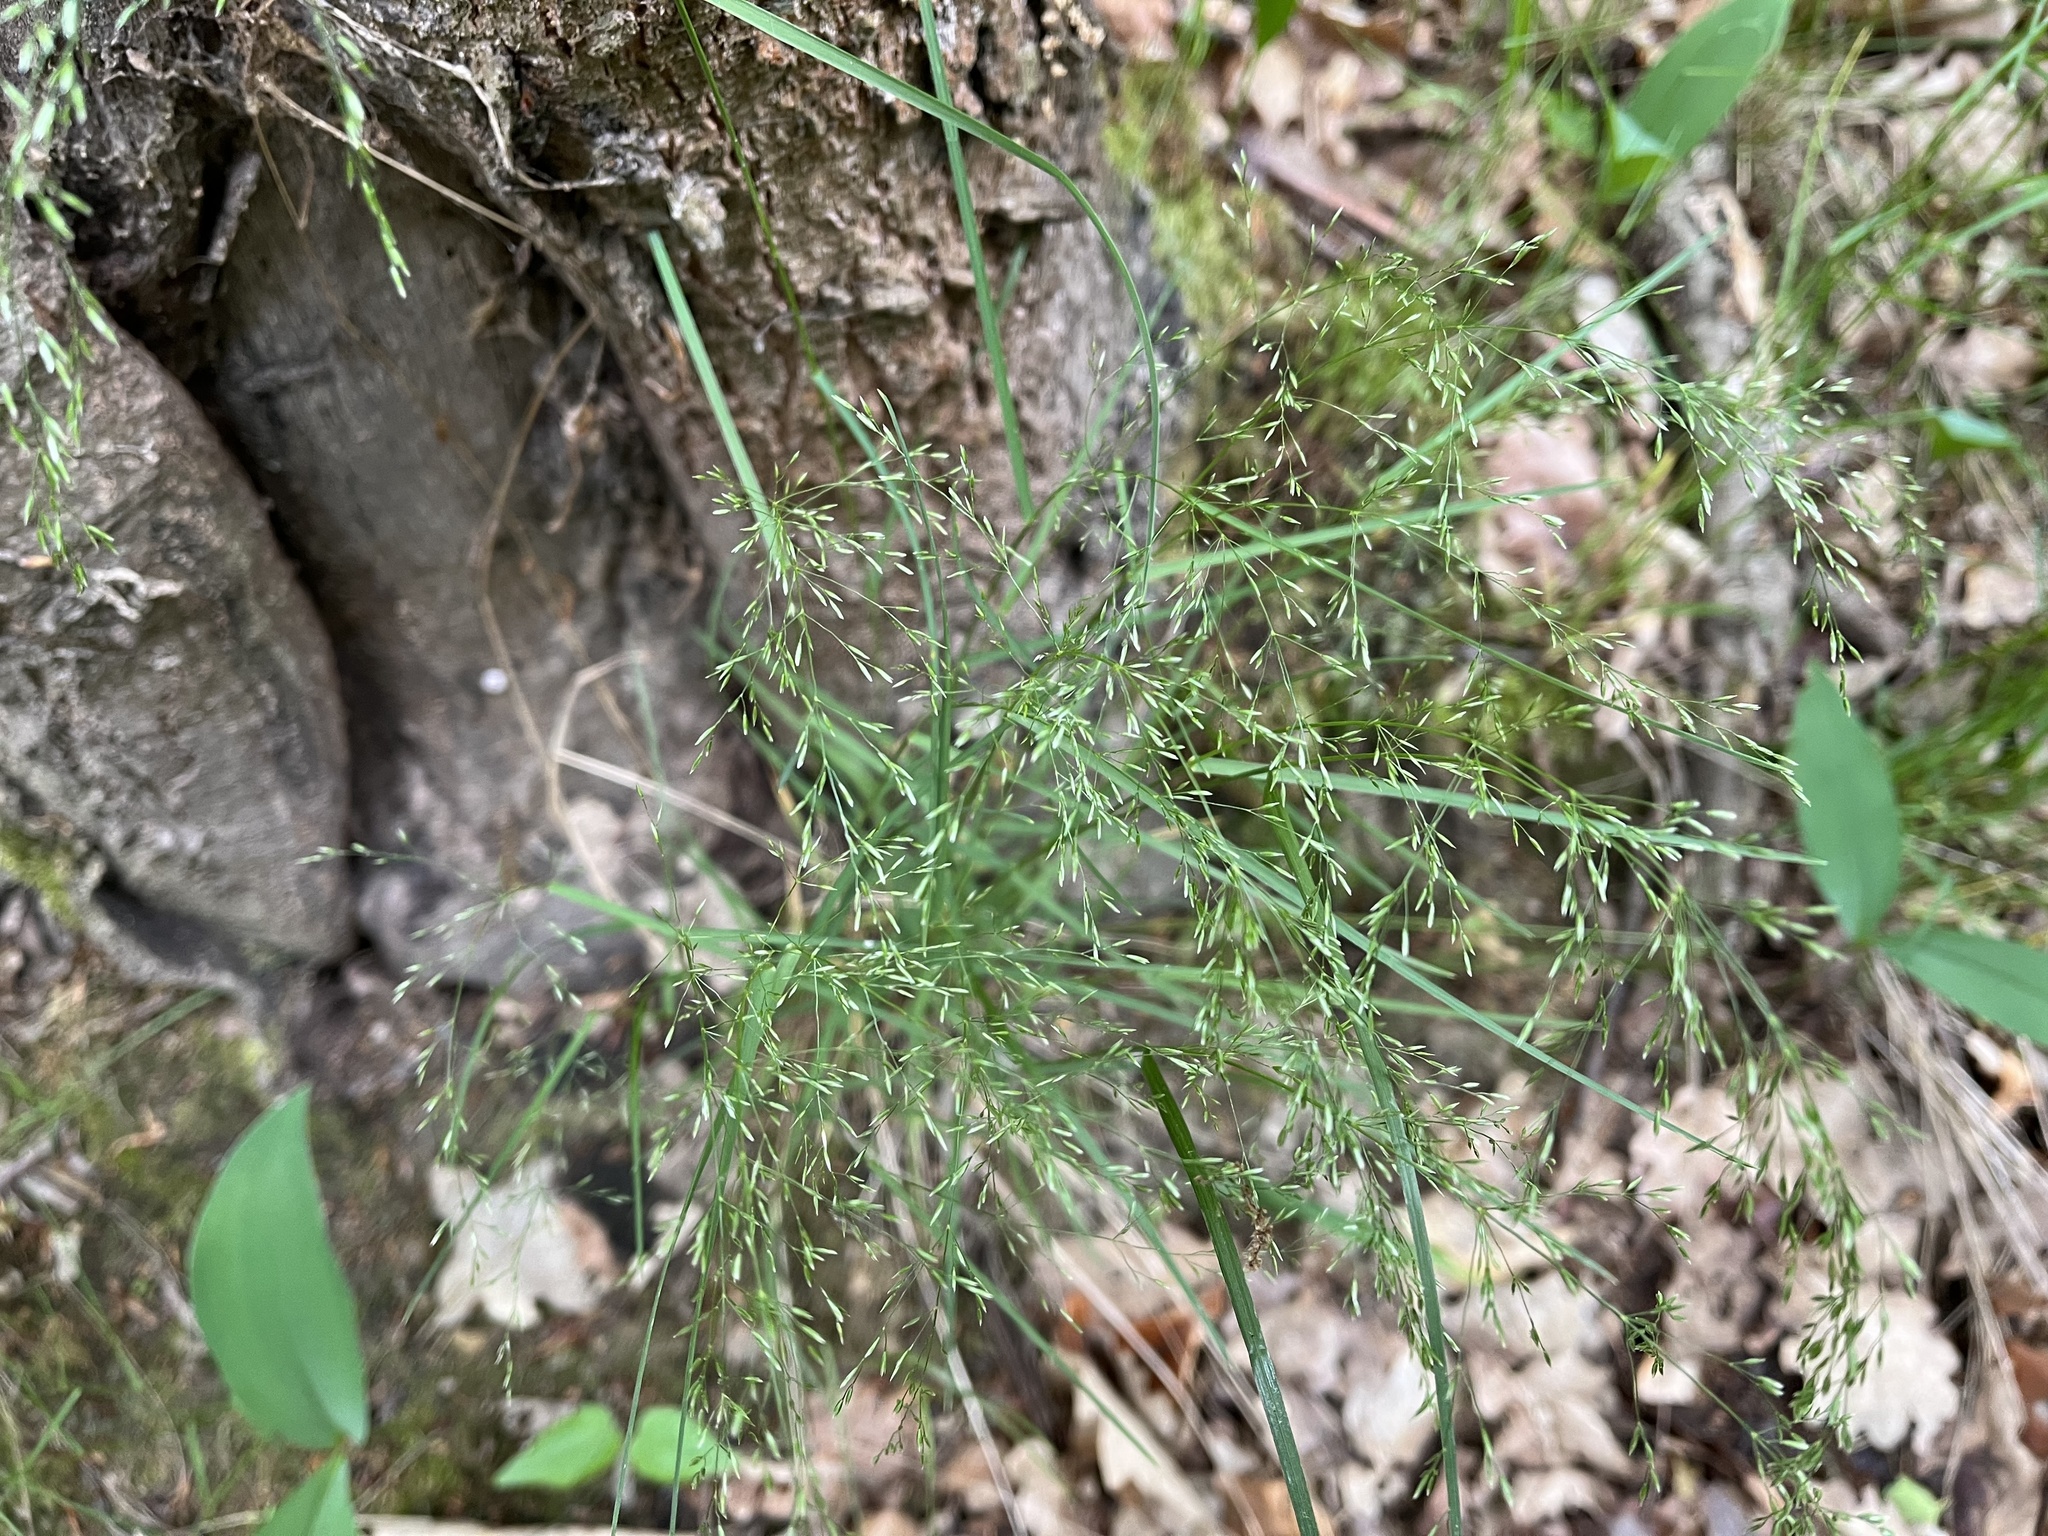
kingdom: Plantae
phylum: Tracheophyta
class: Liliopsida
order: Poales
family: Poaceae
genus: Poa
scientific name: Poa nemoralis
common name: Wood bluegrass
